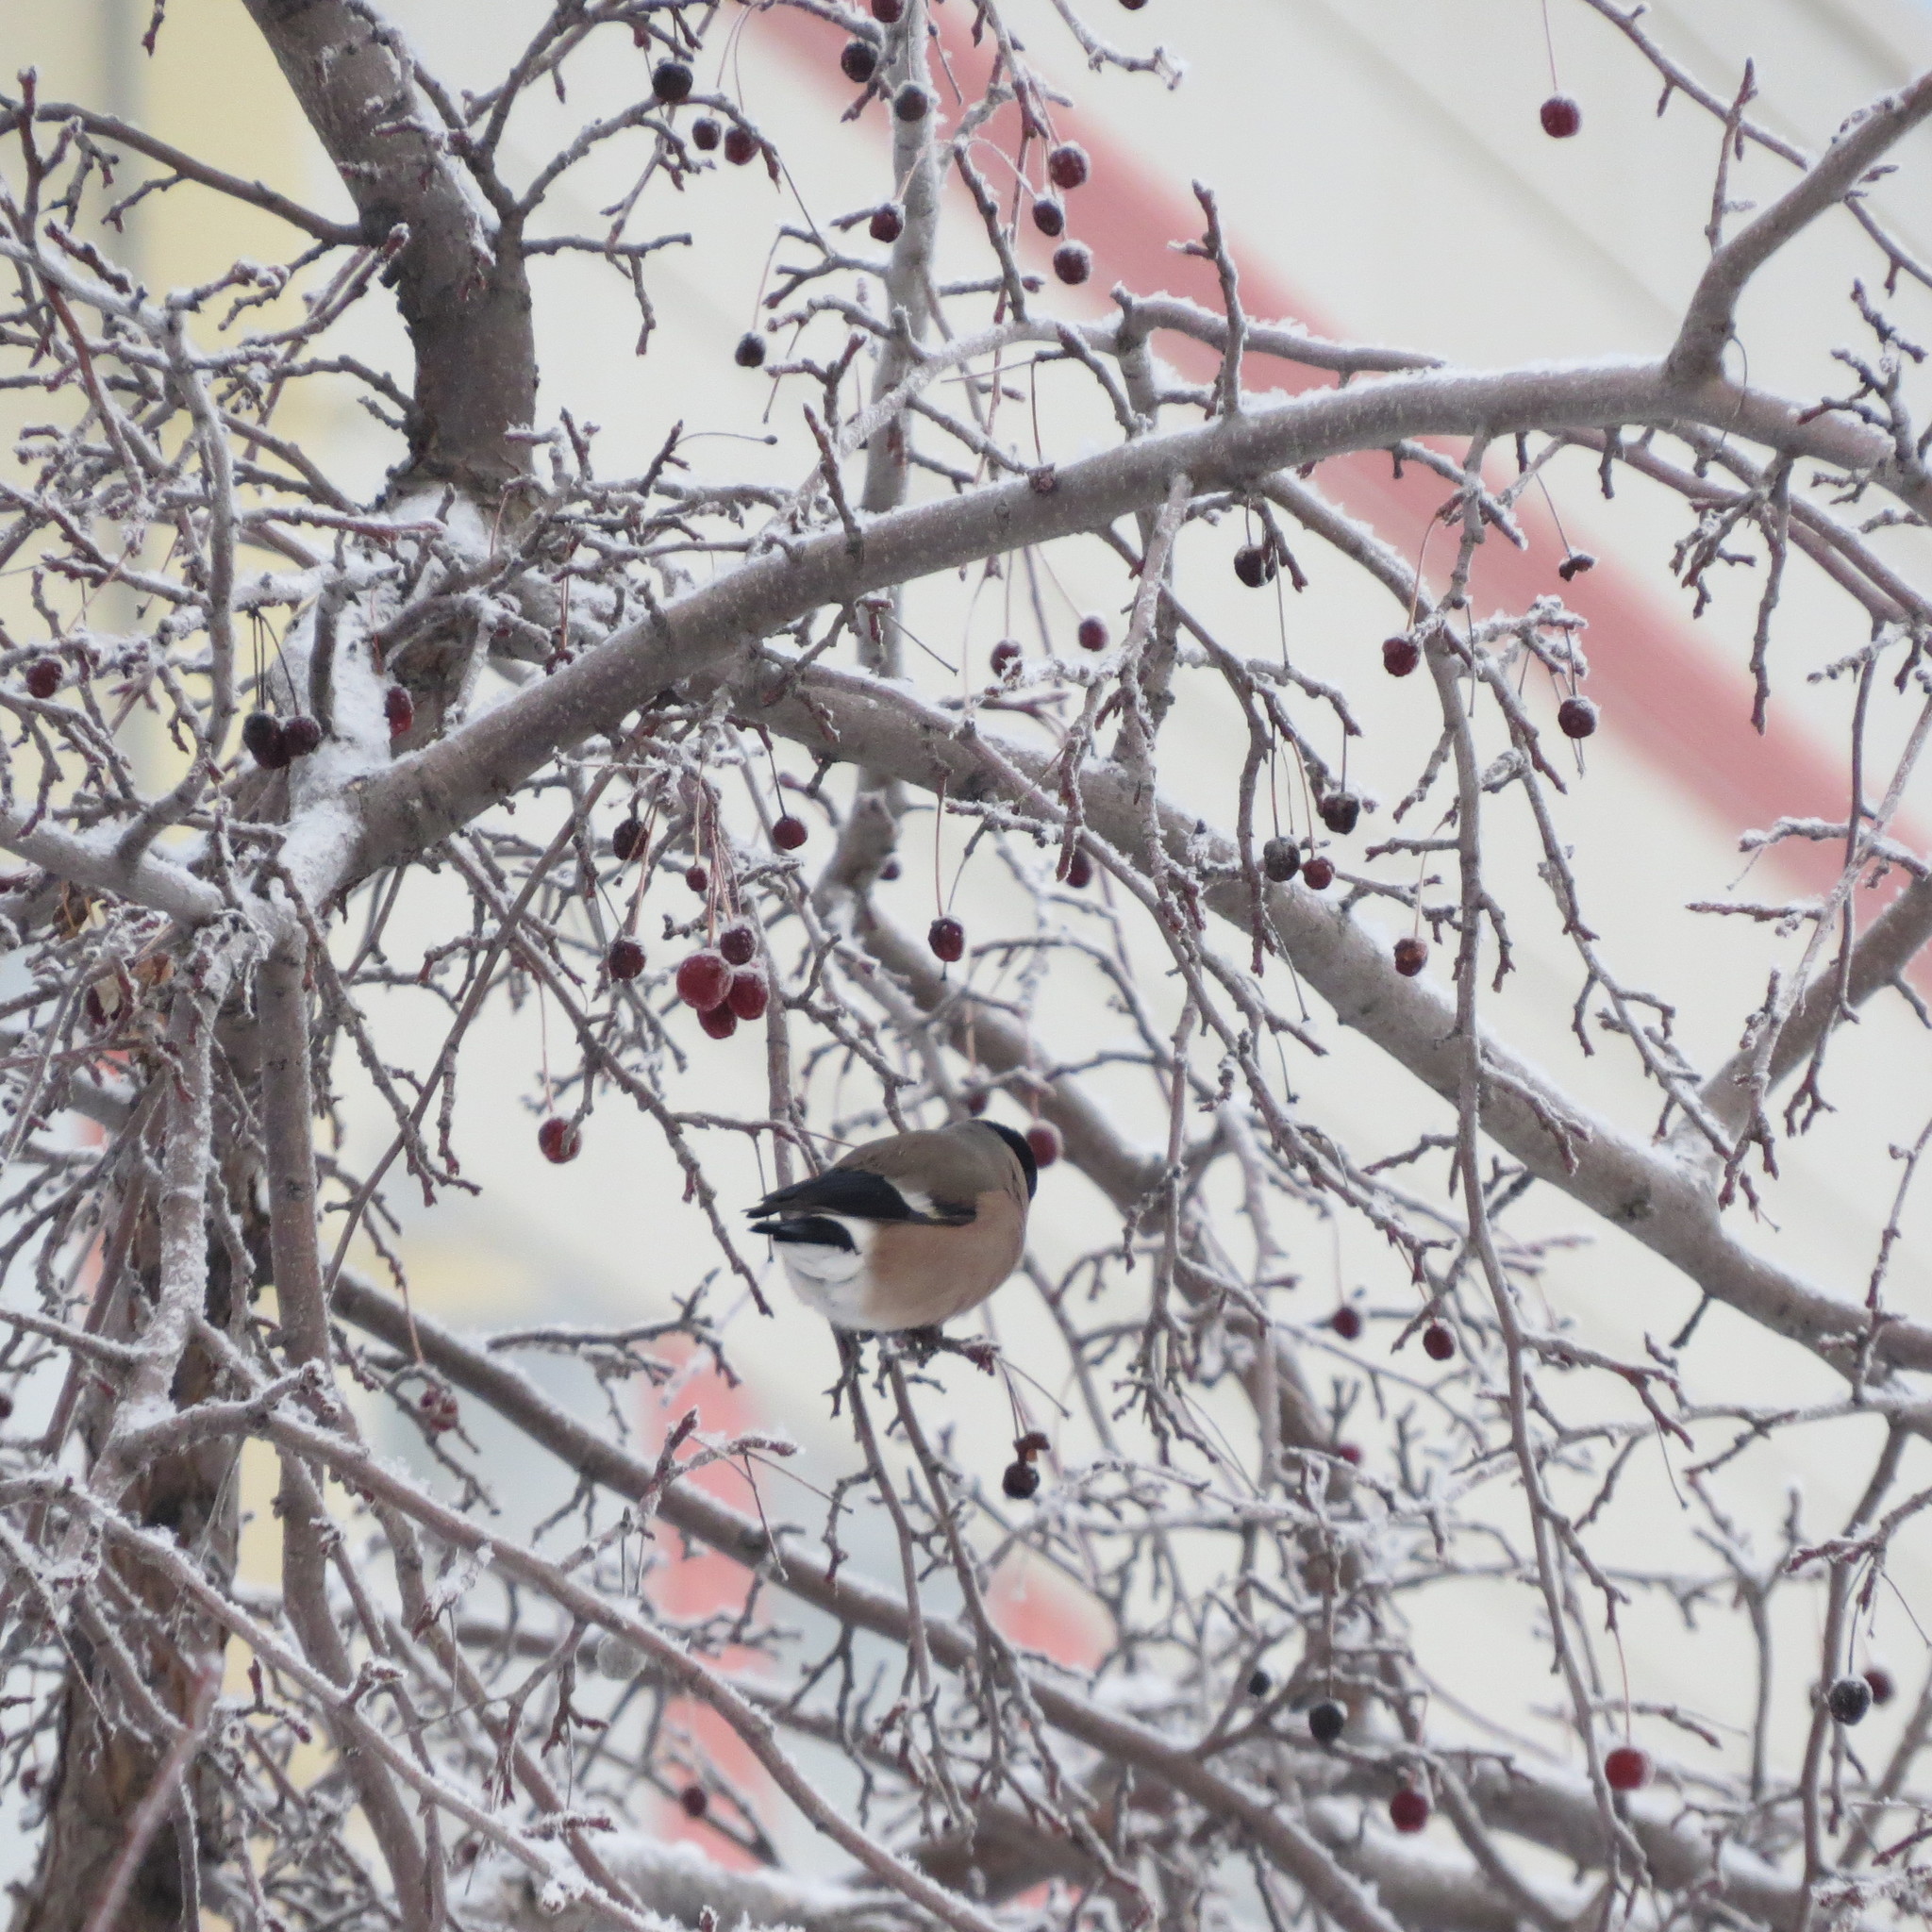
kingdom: Animalia
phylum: Chordata
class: Aves
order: Passeriformes
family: Fringillidae
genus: Pyrrhula
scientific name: Pyrrhula pyrrhula
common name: Eurasian bullfinch
